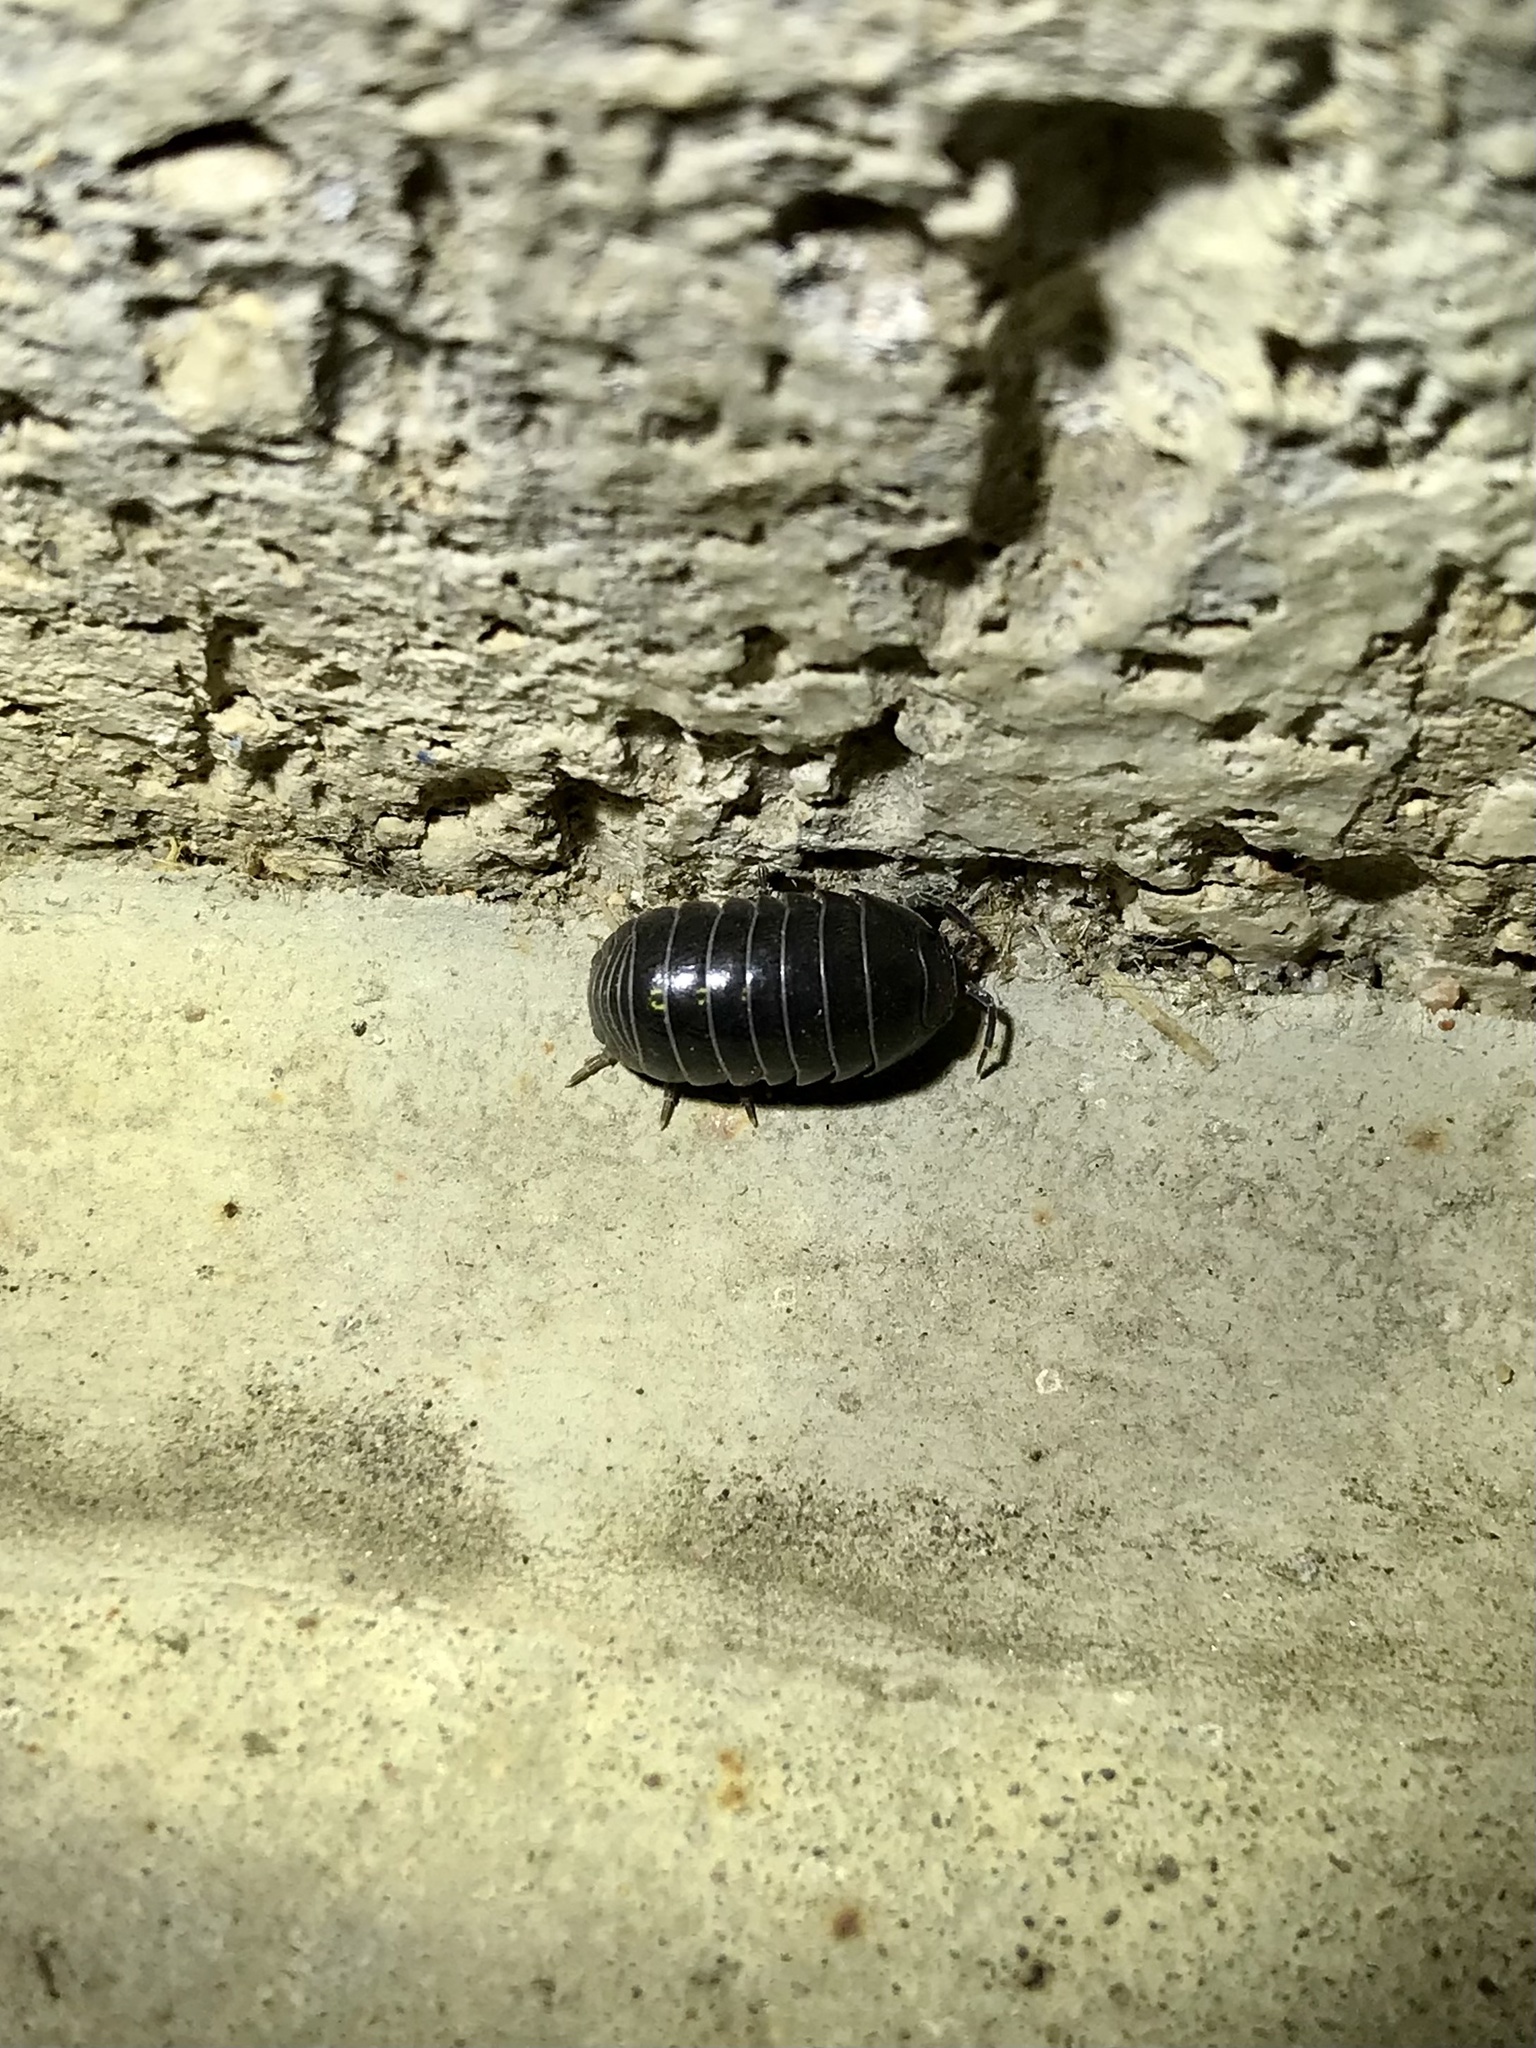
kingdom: Animalia
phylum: Arthropoda
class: Malacostraca
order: Isopoda
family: Armadillidiidae
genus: Armadillidium
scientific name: Armadillidium vulgare
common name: Common pill woodlouse
